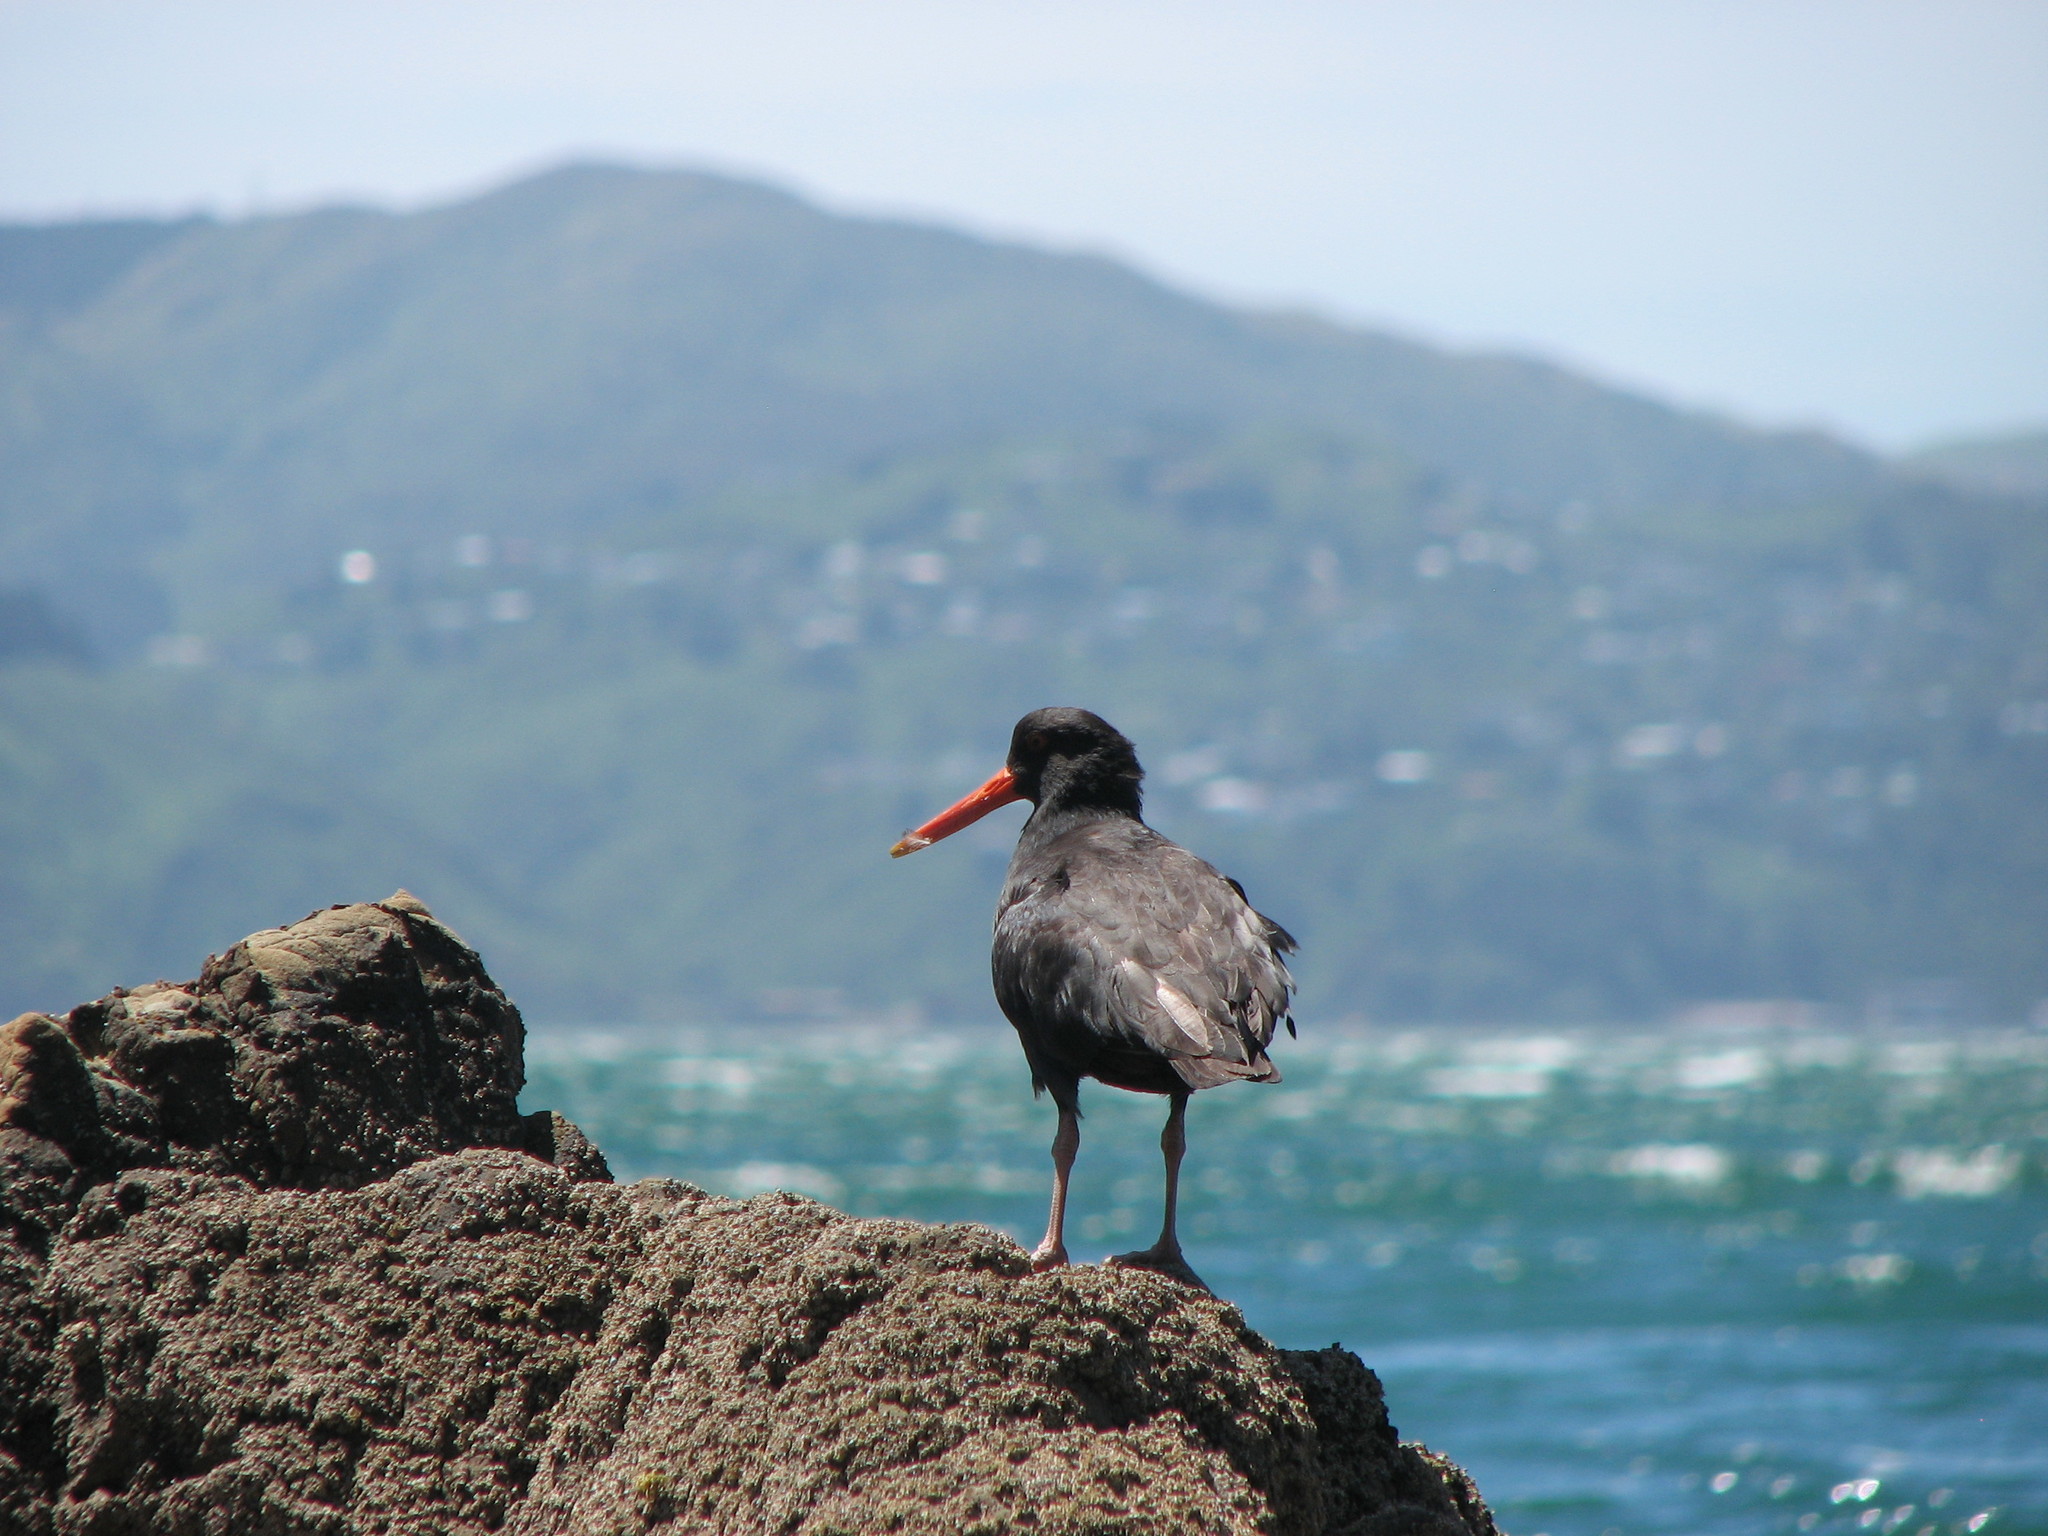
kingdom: Animalia
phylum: Chordata
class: Aves
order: Charadriiformes
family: Haematopodidae
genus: Haematopus
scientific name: Haematopus unicolor
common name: Variable oystercatcher
